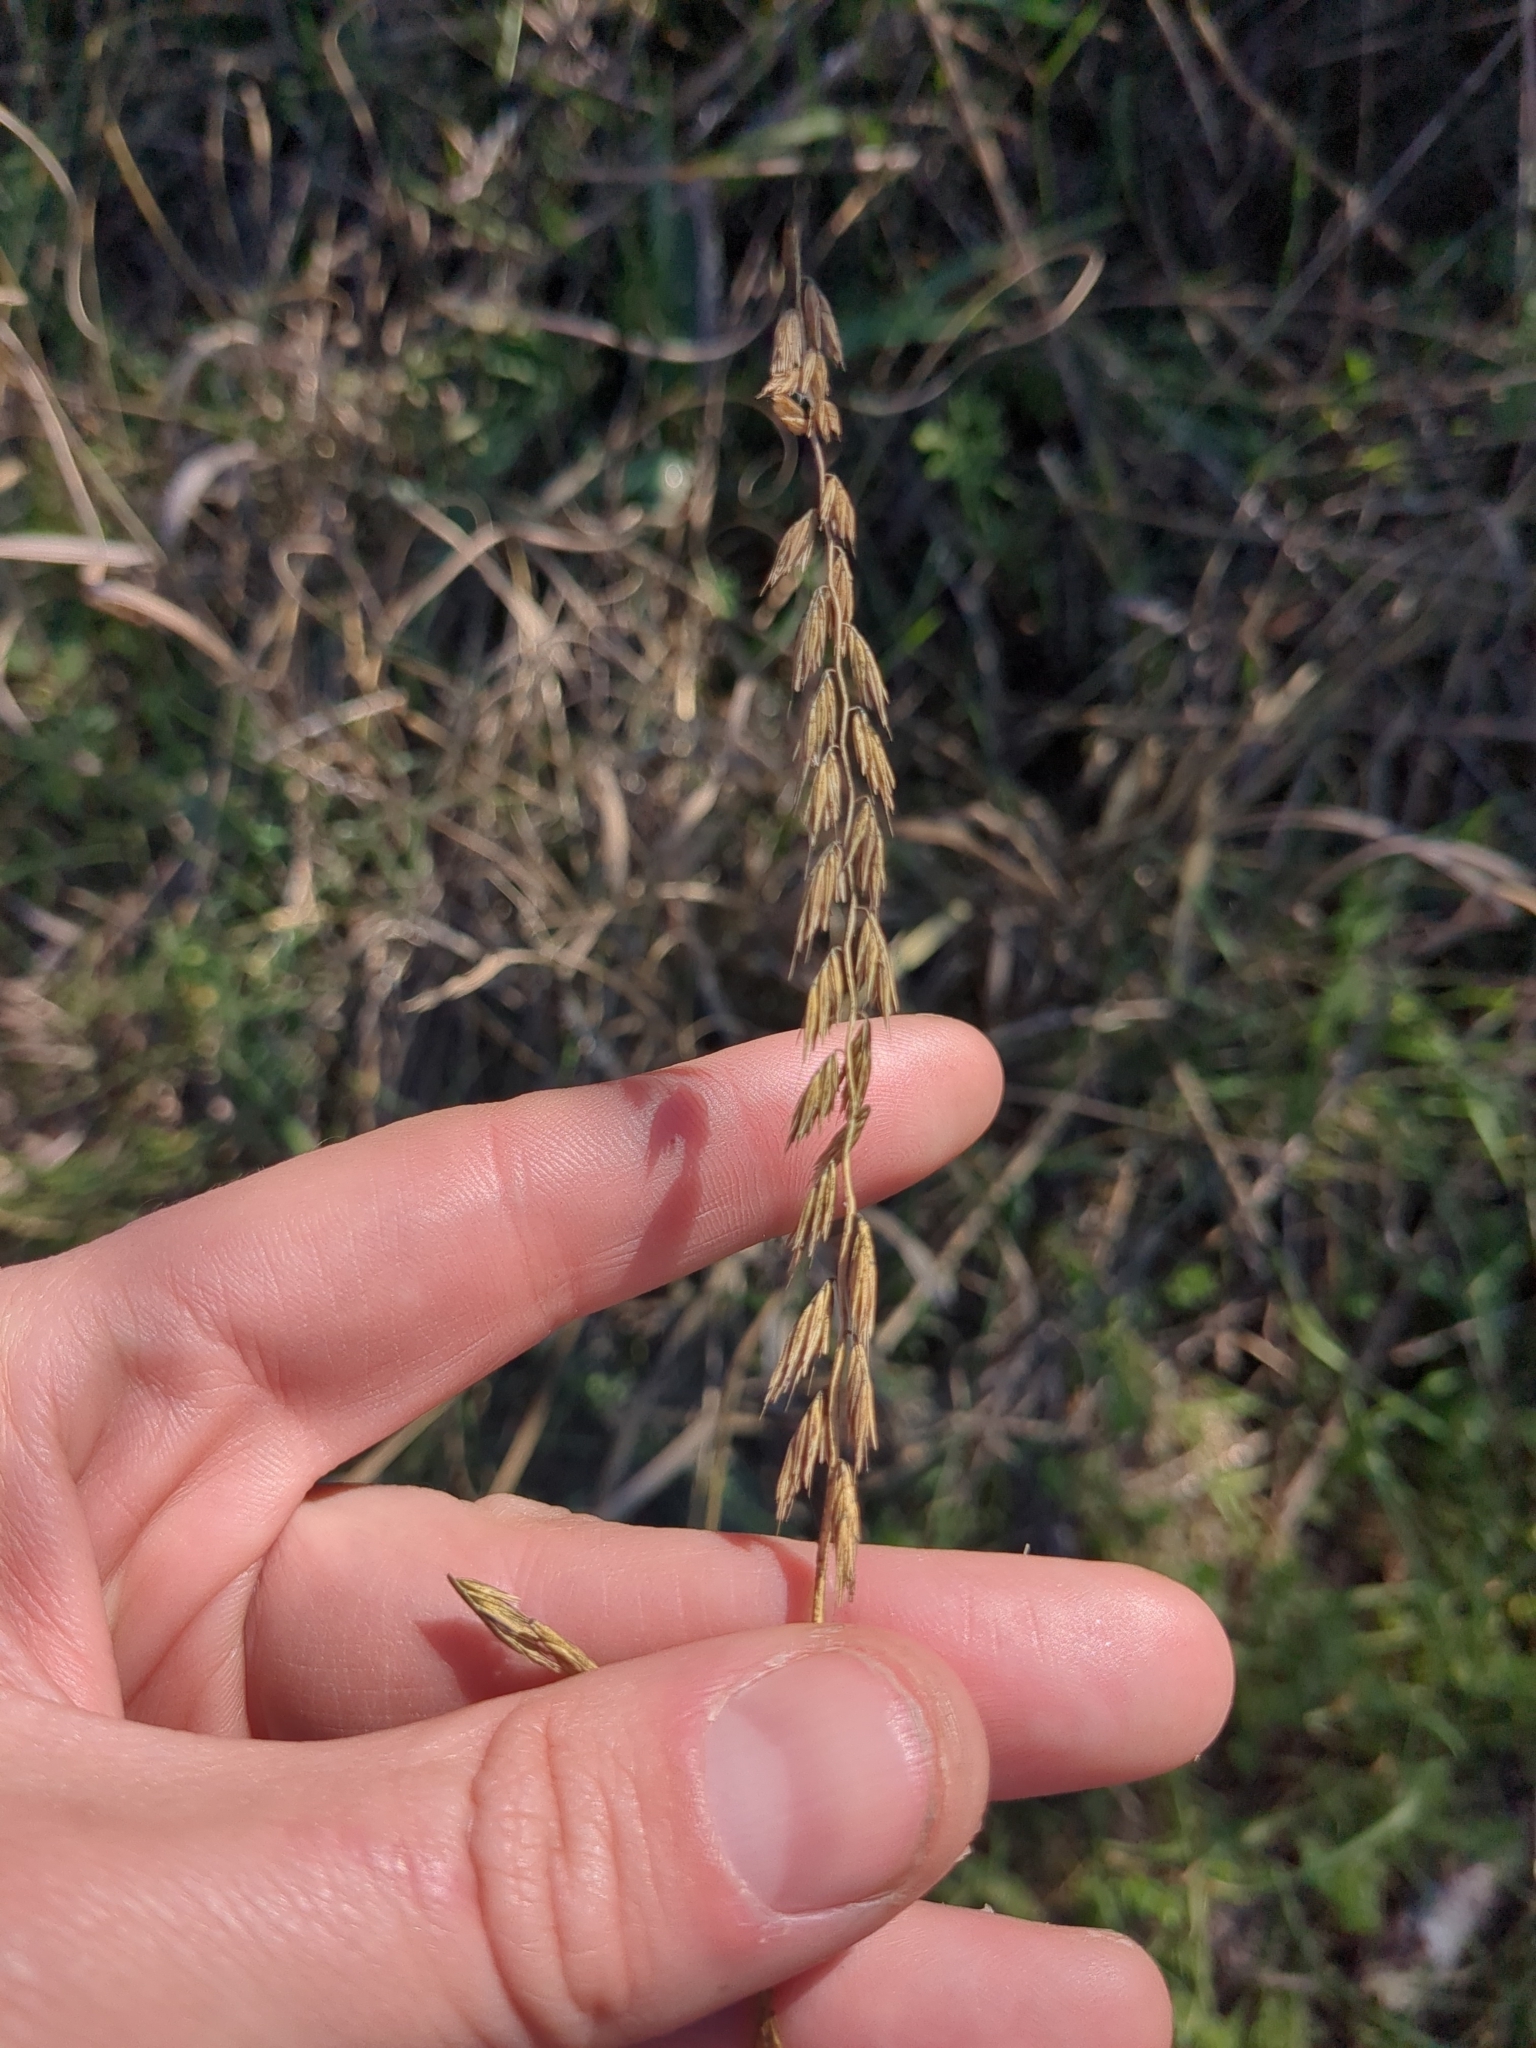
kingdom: Plantae
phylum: Tracheophyta
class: Liliopsida
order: Poales
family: Poaceae
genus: Bouteloua
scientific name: Bouteloua curtipendula
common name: Side-oats grama
